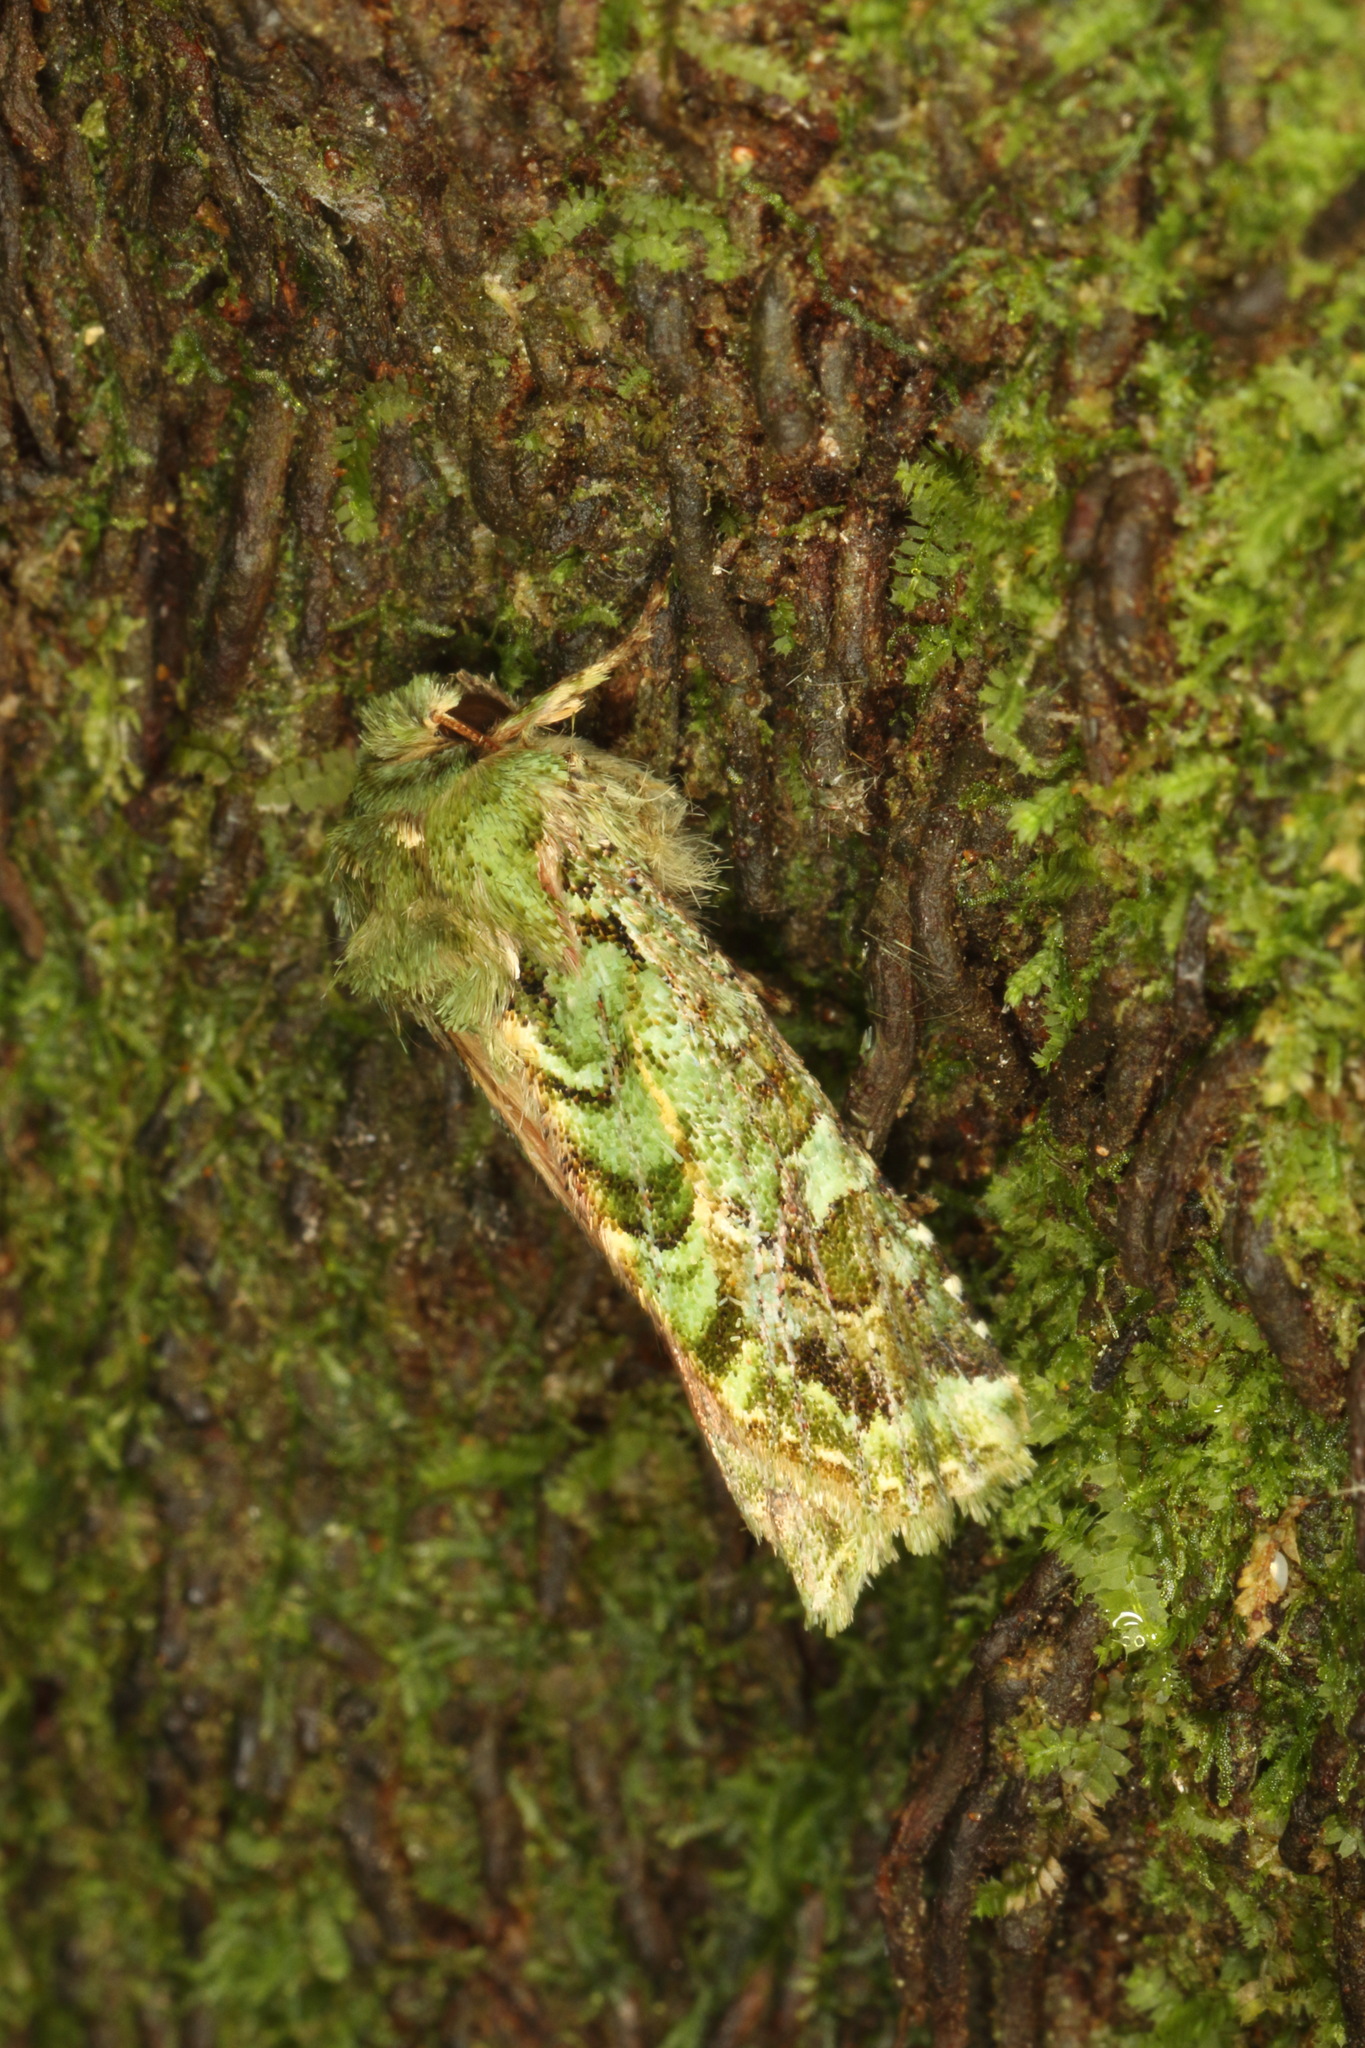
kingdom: Animalia
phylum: Arthropoda
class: Insecta
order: Lepidoptera
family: Noctuidae
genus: Feredayia
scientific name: Feredayia grammosa
